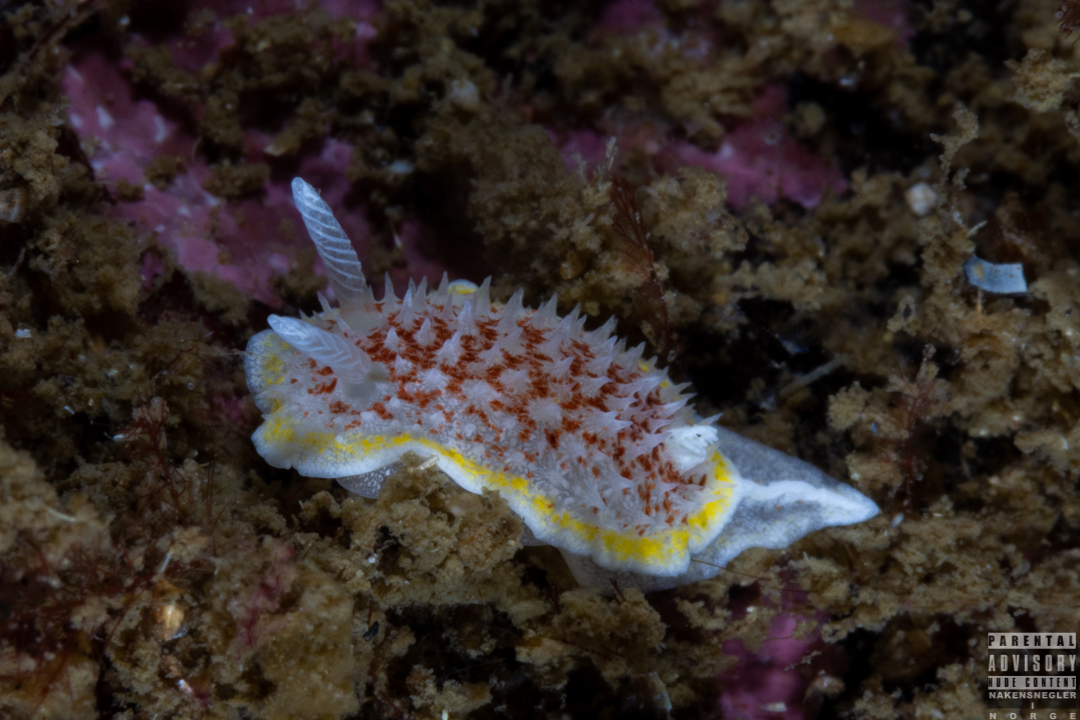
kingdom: Animalia
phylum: Mollusca
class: Gastropoda
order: Nudibranchia
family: Calycidorididae
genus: Diaphorodoris
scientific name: Diaphorodoris luteocincta
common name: Fried egg nudibranch
